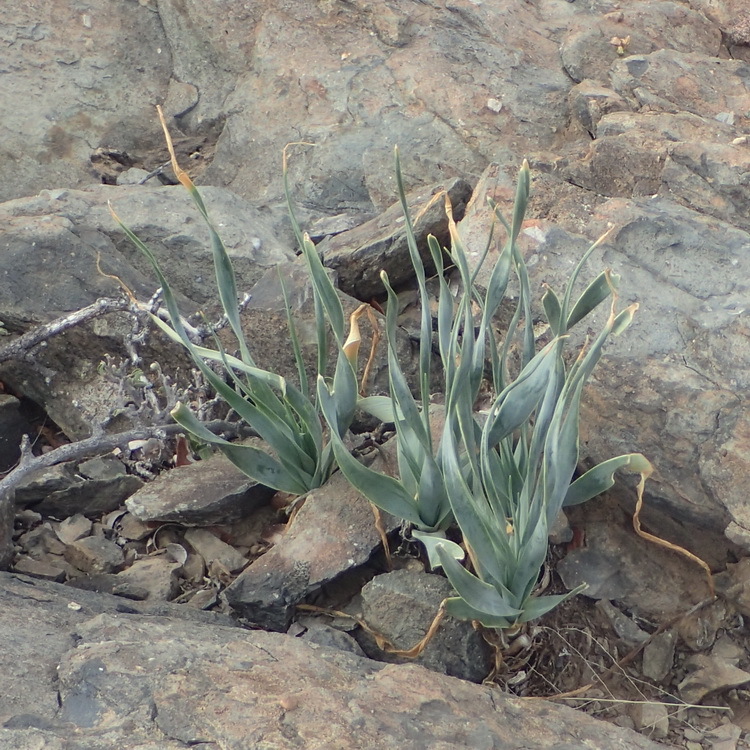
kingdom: Plantae
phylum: Tracheophyta
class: Liliopsida
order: Asparagales
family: Asparagaceae
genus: Fusifilum
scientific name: Fusifilum physodes
